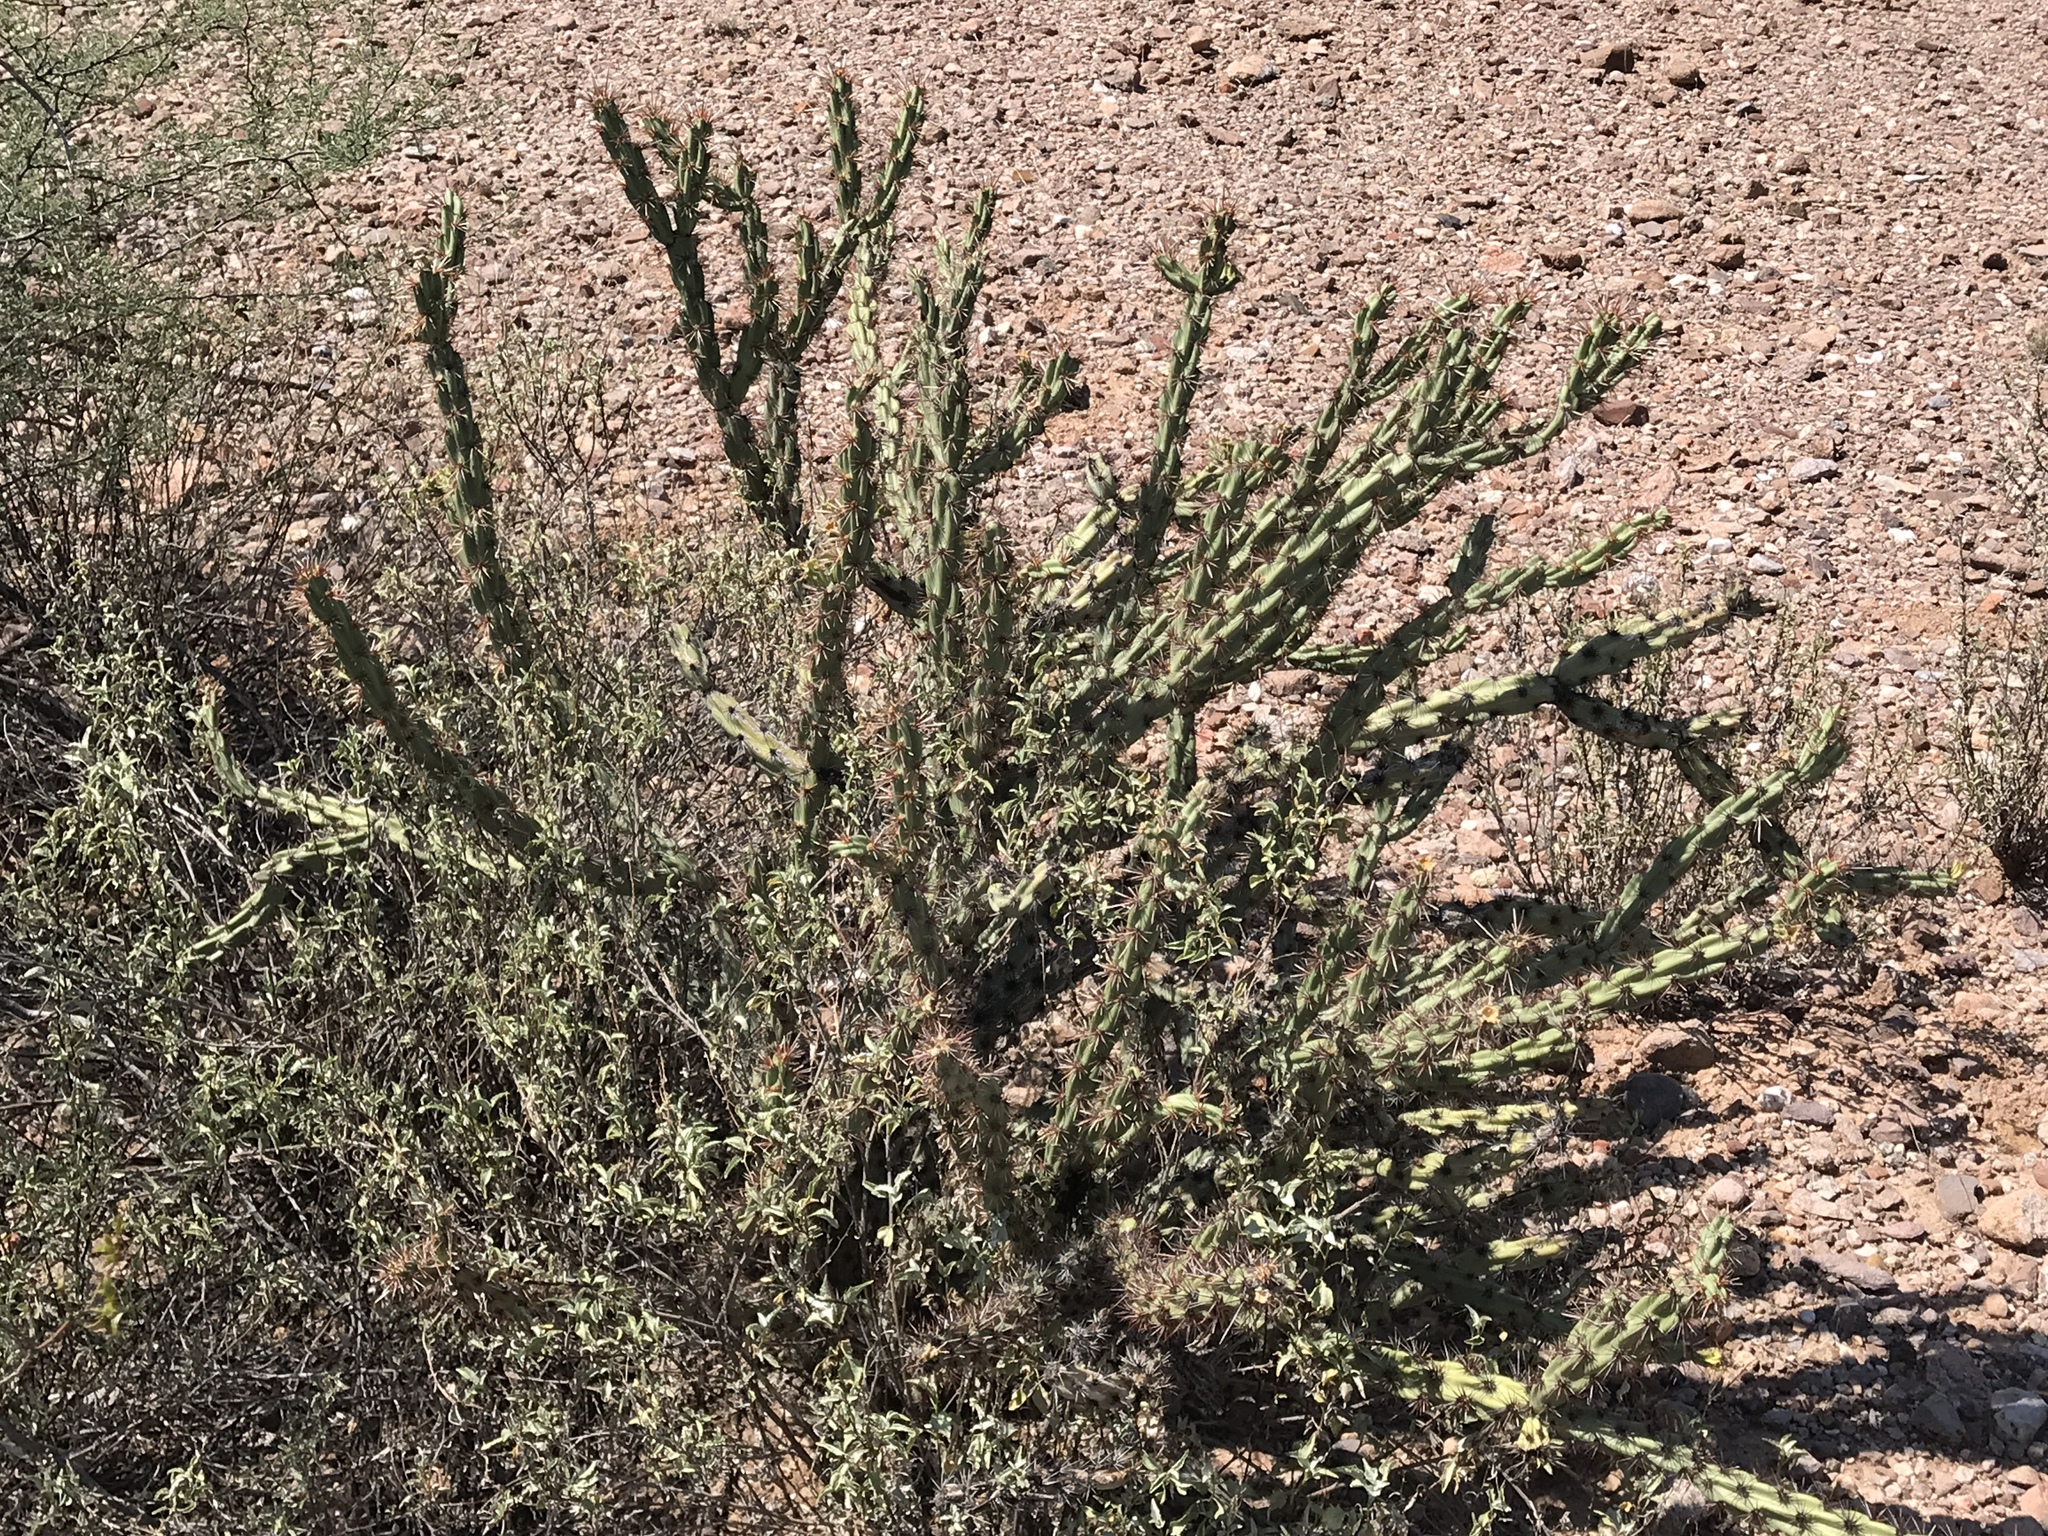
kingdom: Plantae
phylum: Tracheophyta
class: Magnoliopsida
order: Caryophyllales
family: Cactaceae
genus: Cylindropuntia
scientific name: Cylindropuntia acanthocarpa
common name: Buckhorn cholla
